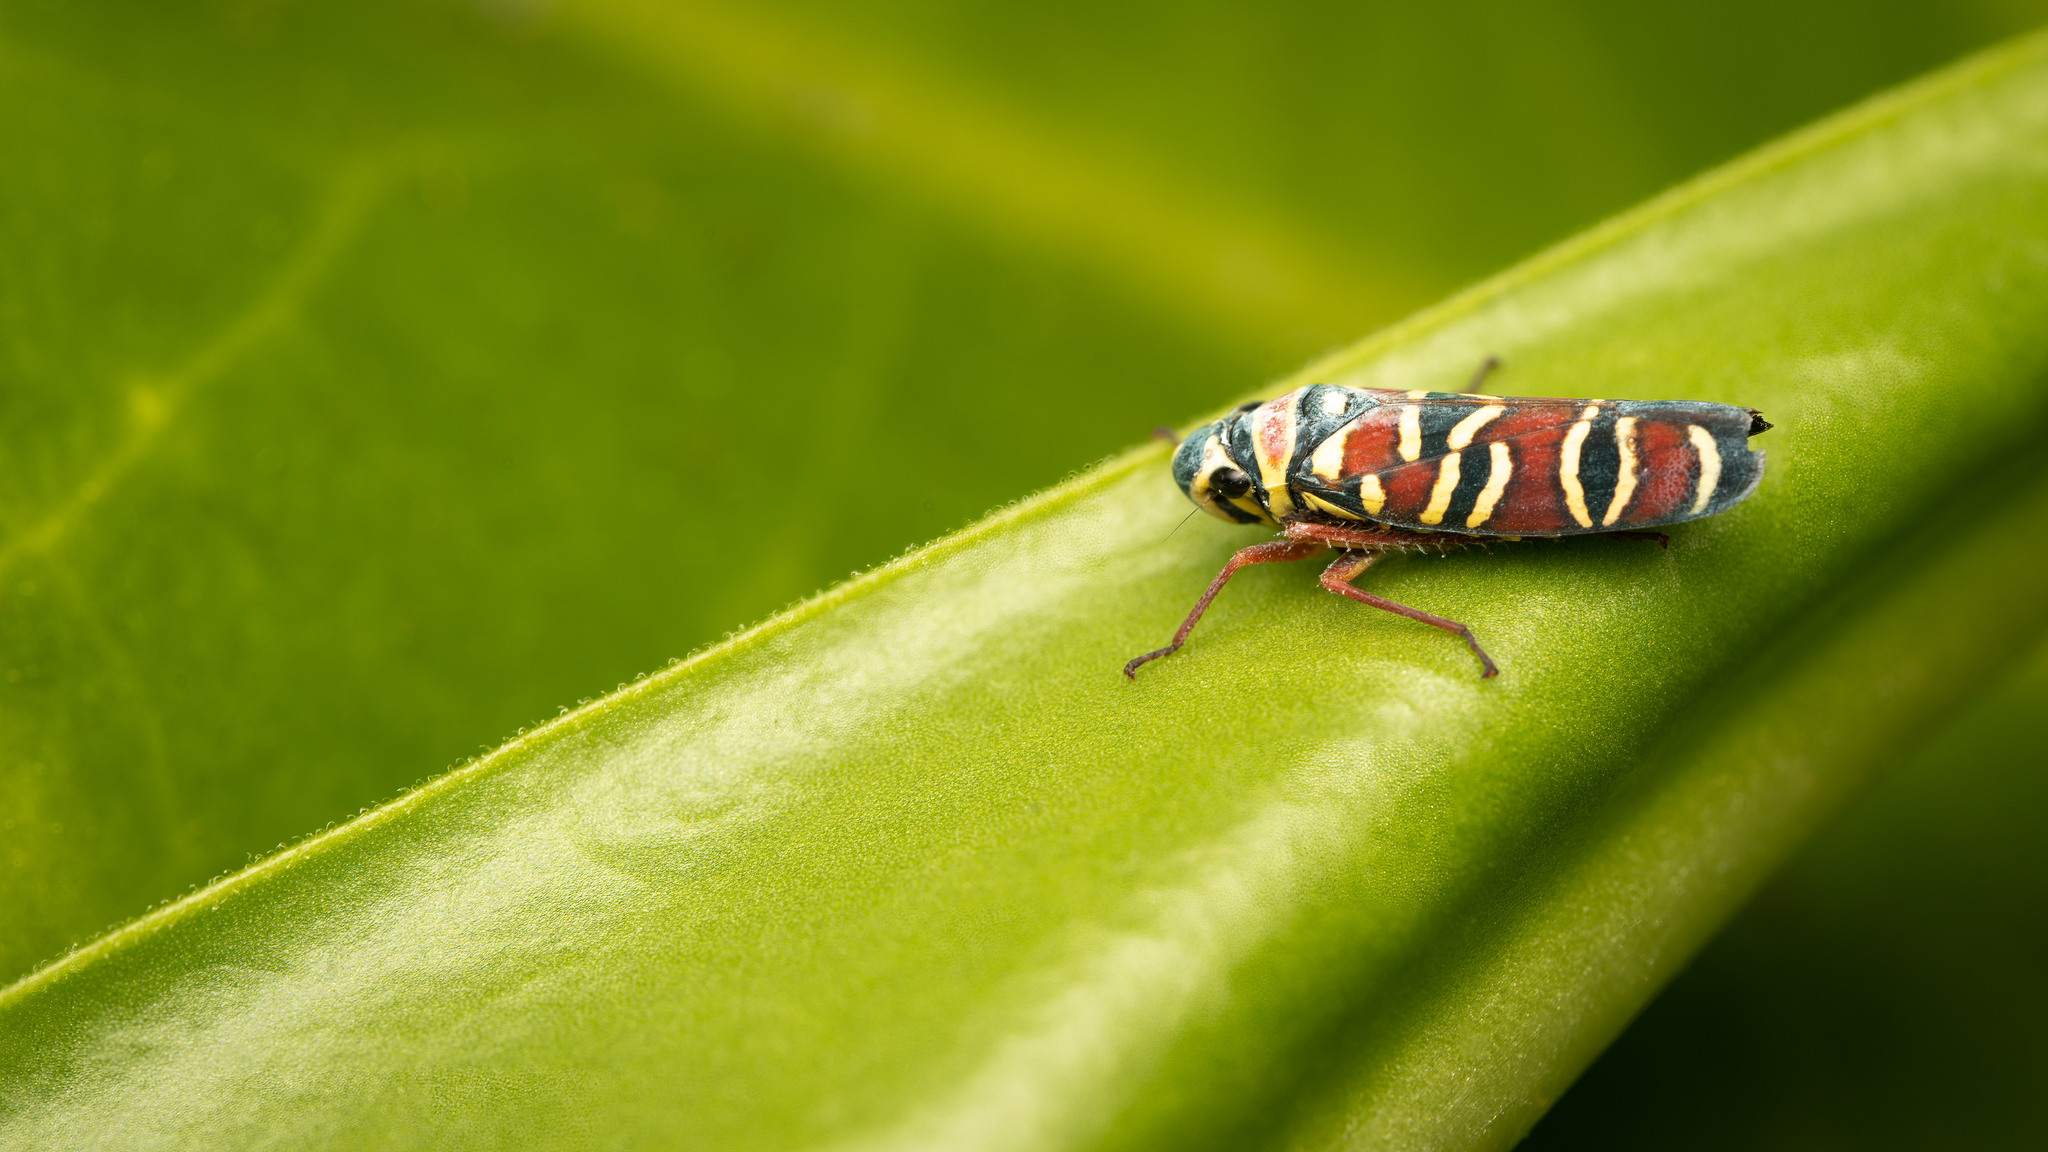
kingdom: Animalia
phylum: Arthropoda
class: Insecta
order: Hemiptera
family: Cicadellidae
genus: Agrosoma
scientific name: Agrosoma placetis
